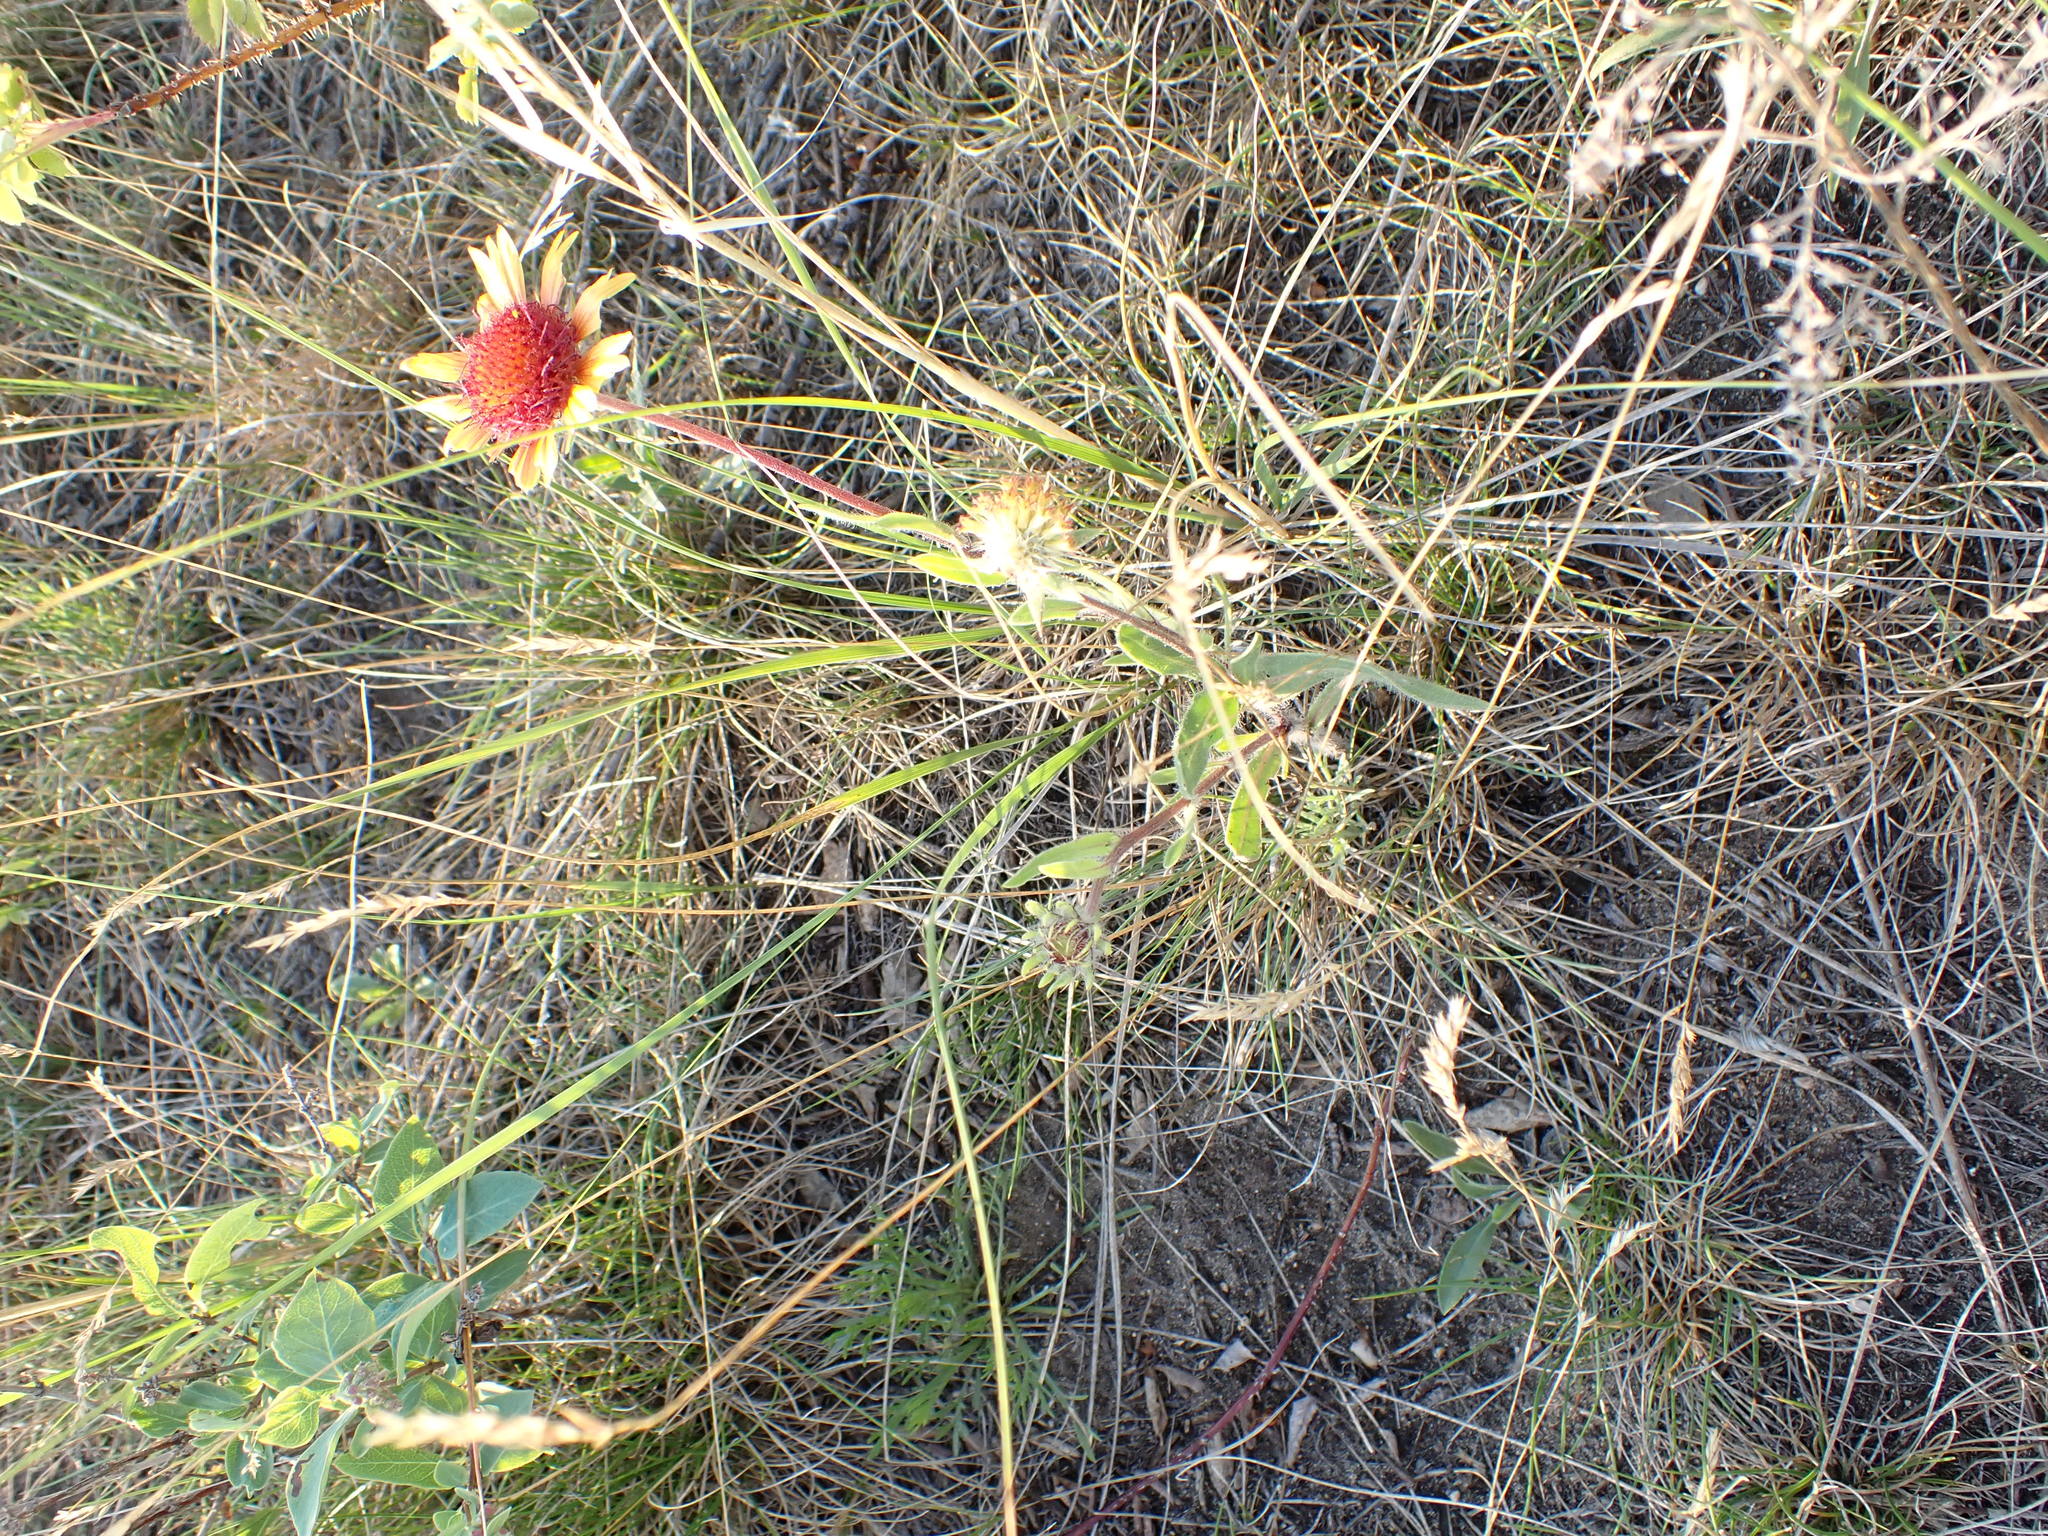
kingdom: Plantae
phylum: Tracheophyta
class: Magnoliopsida
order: Asterales
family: Asteraceae
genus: Gaillardia
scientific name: Gaillardia aristata
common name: Blanket-flower
